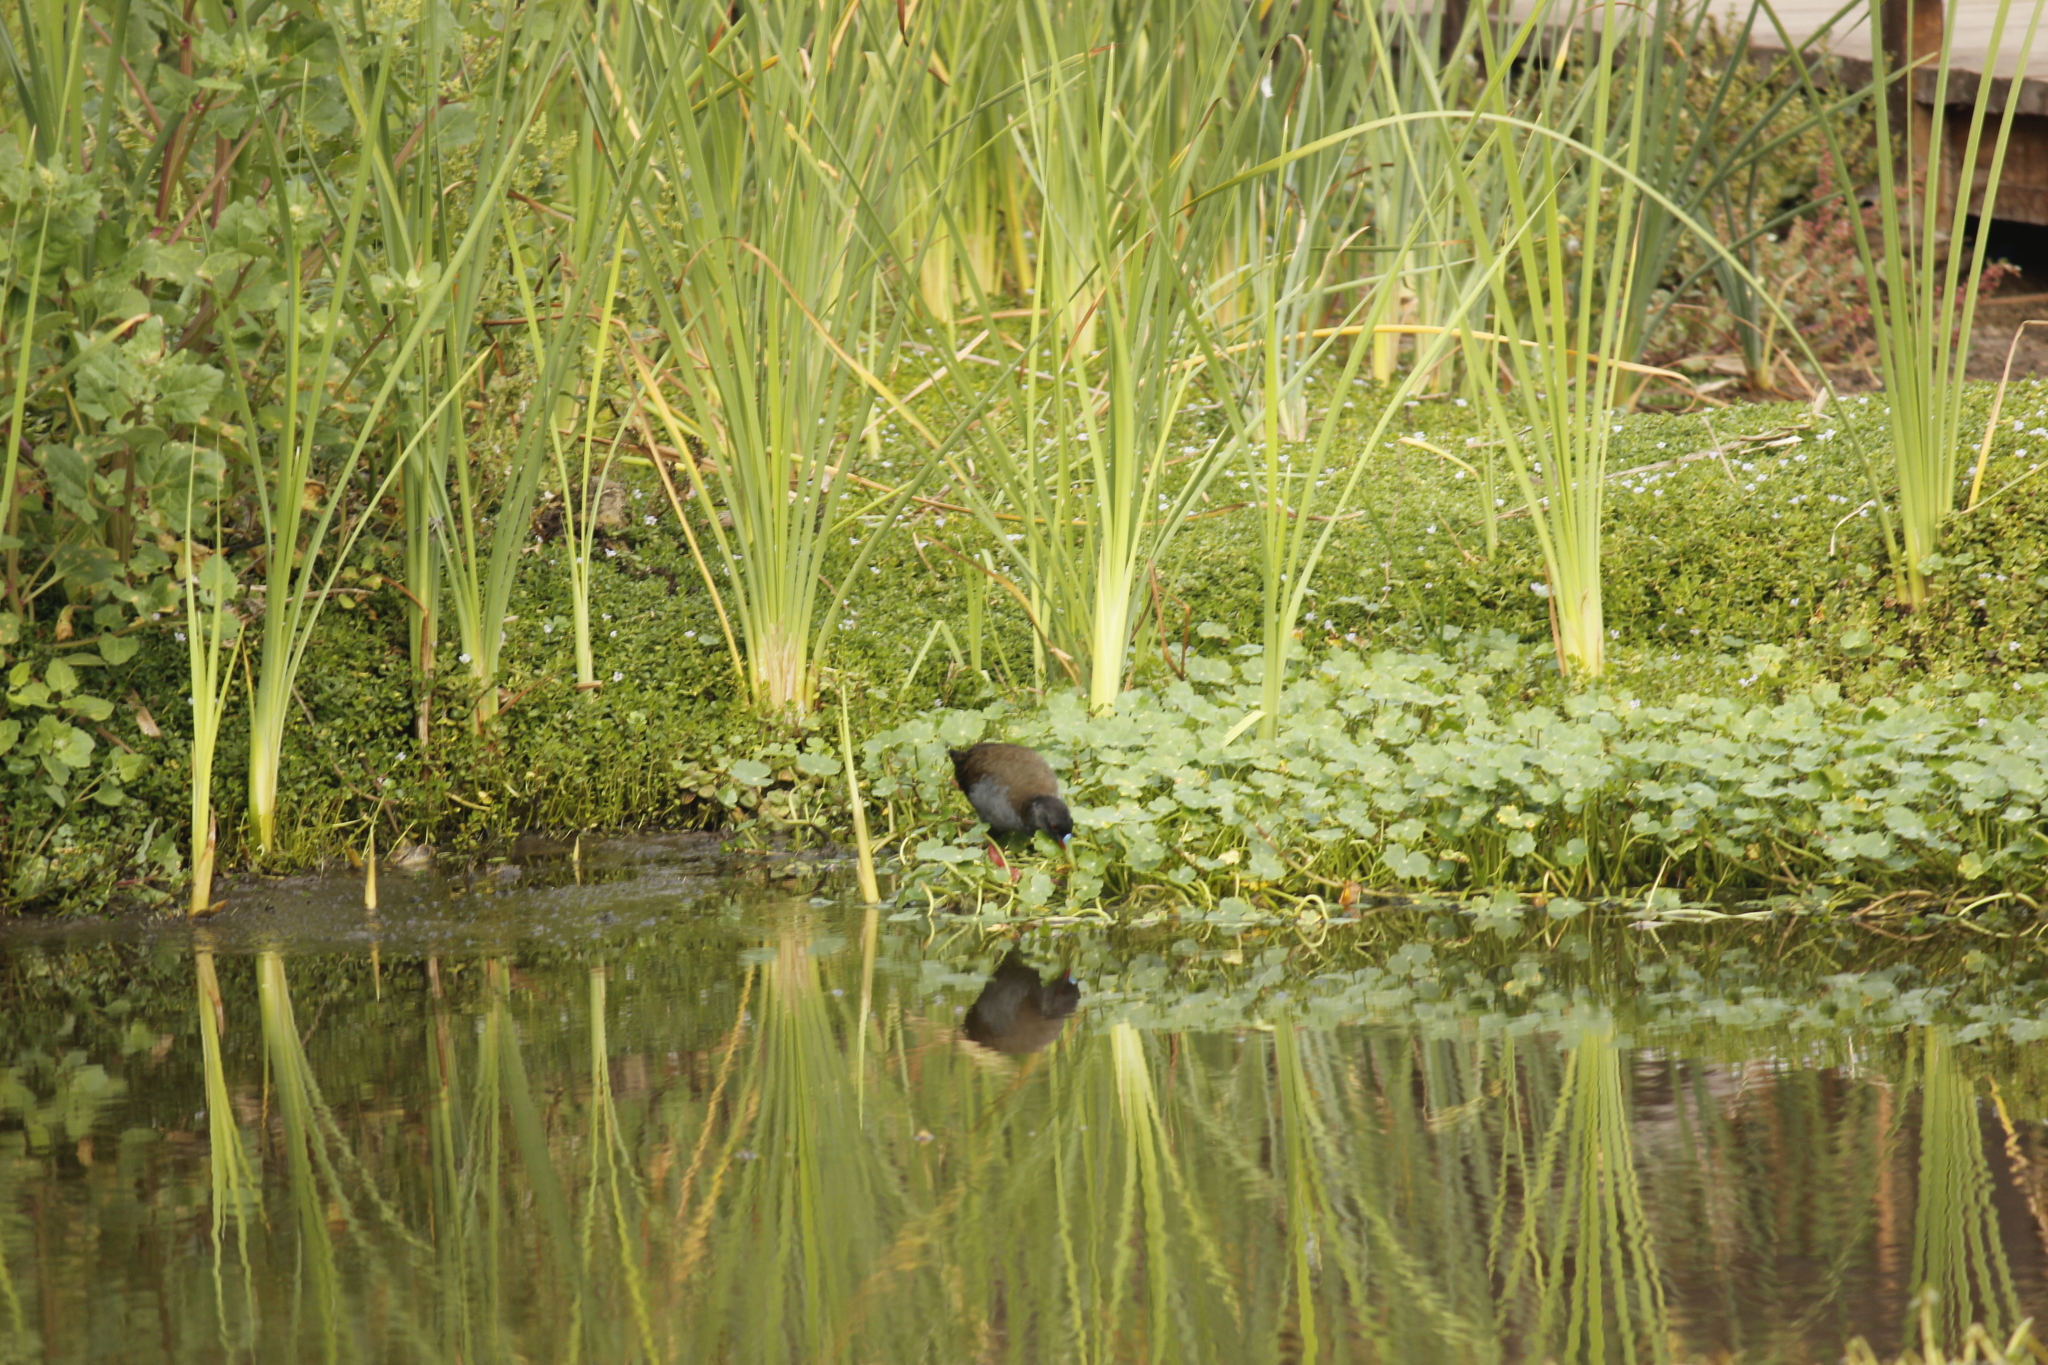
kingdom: Animalia
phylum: Chordata
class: Aves
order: Gruiformes
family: Rallidae
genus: Pardirallus
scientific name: Pardirallus sanguinolentus
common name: Plumbeous rail
